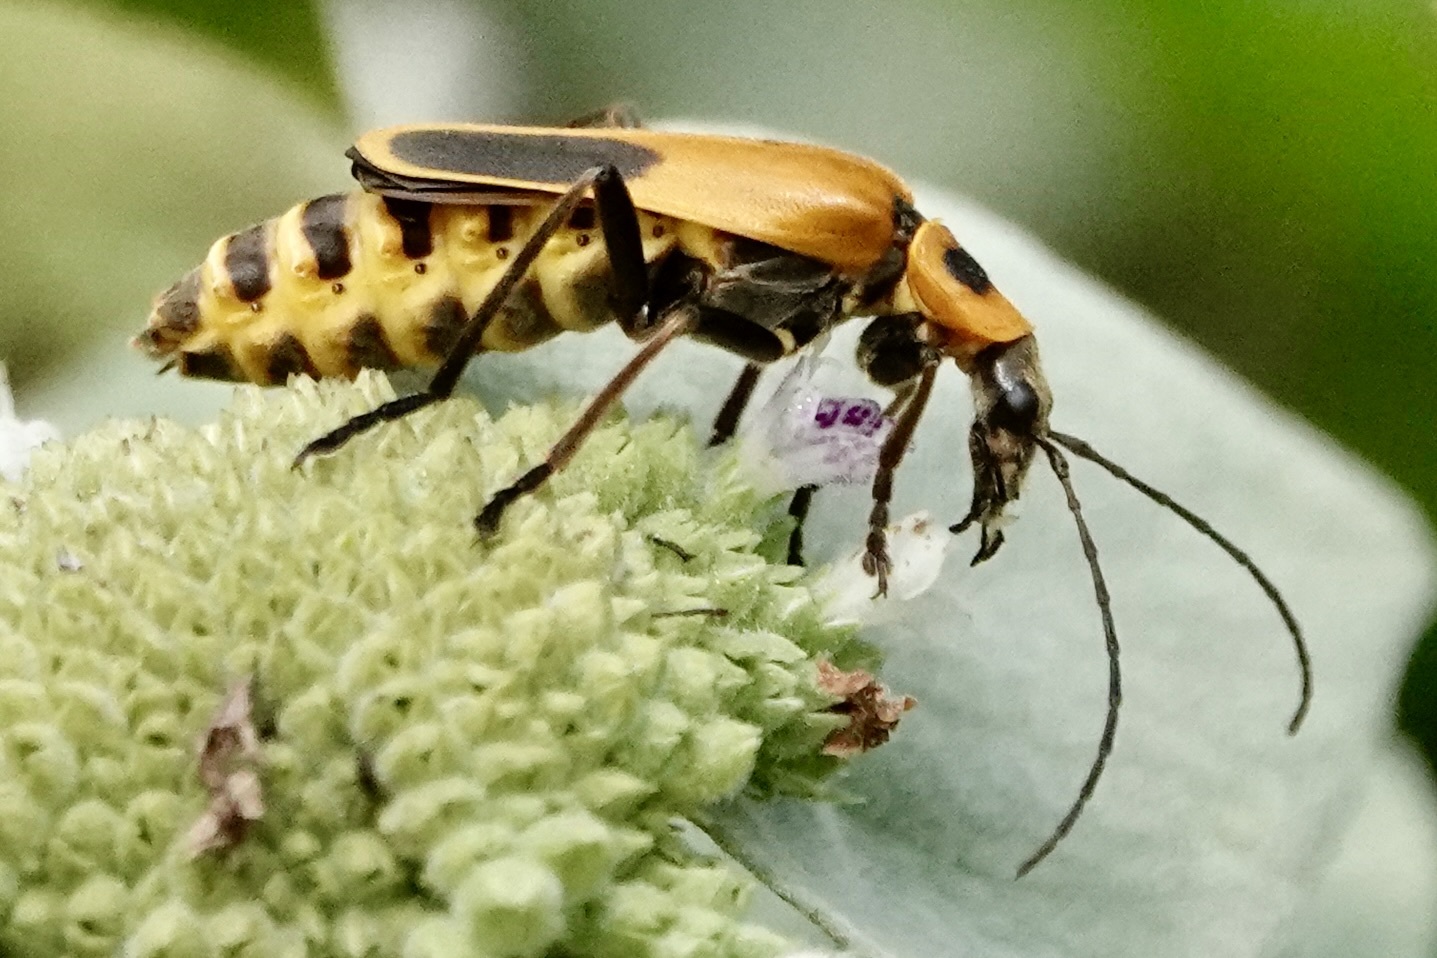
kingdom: Animalia
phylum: Arthropoda
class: Insecta
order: Coleoptera
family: Cantharidae
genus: Chauliognathus
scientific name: Chauliognathus pensylvanicus
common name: Goldenrod soldier beetle
